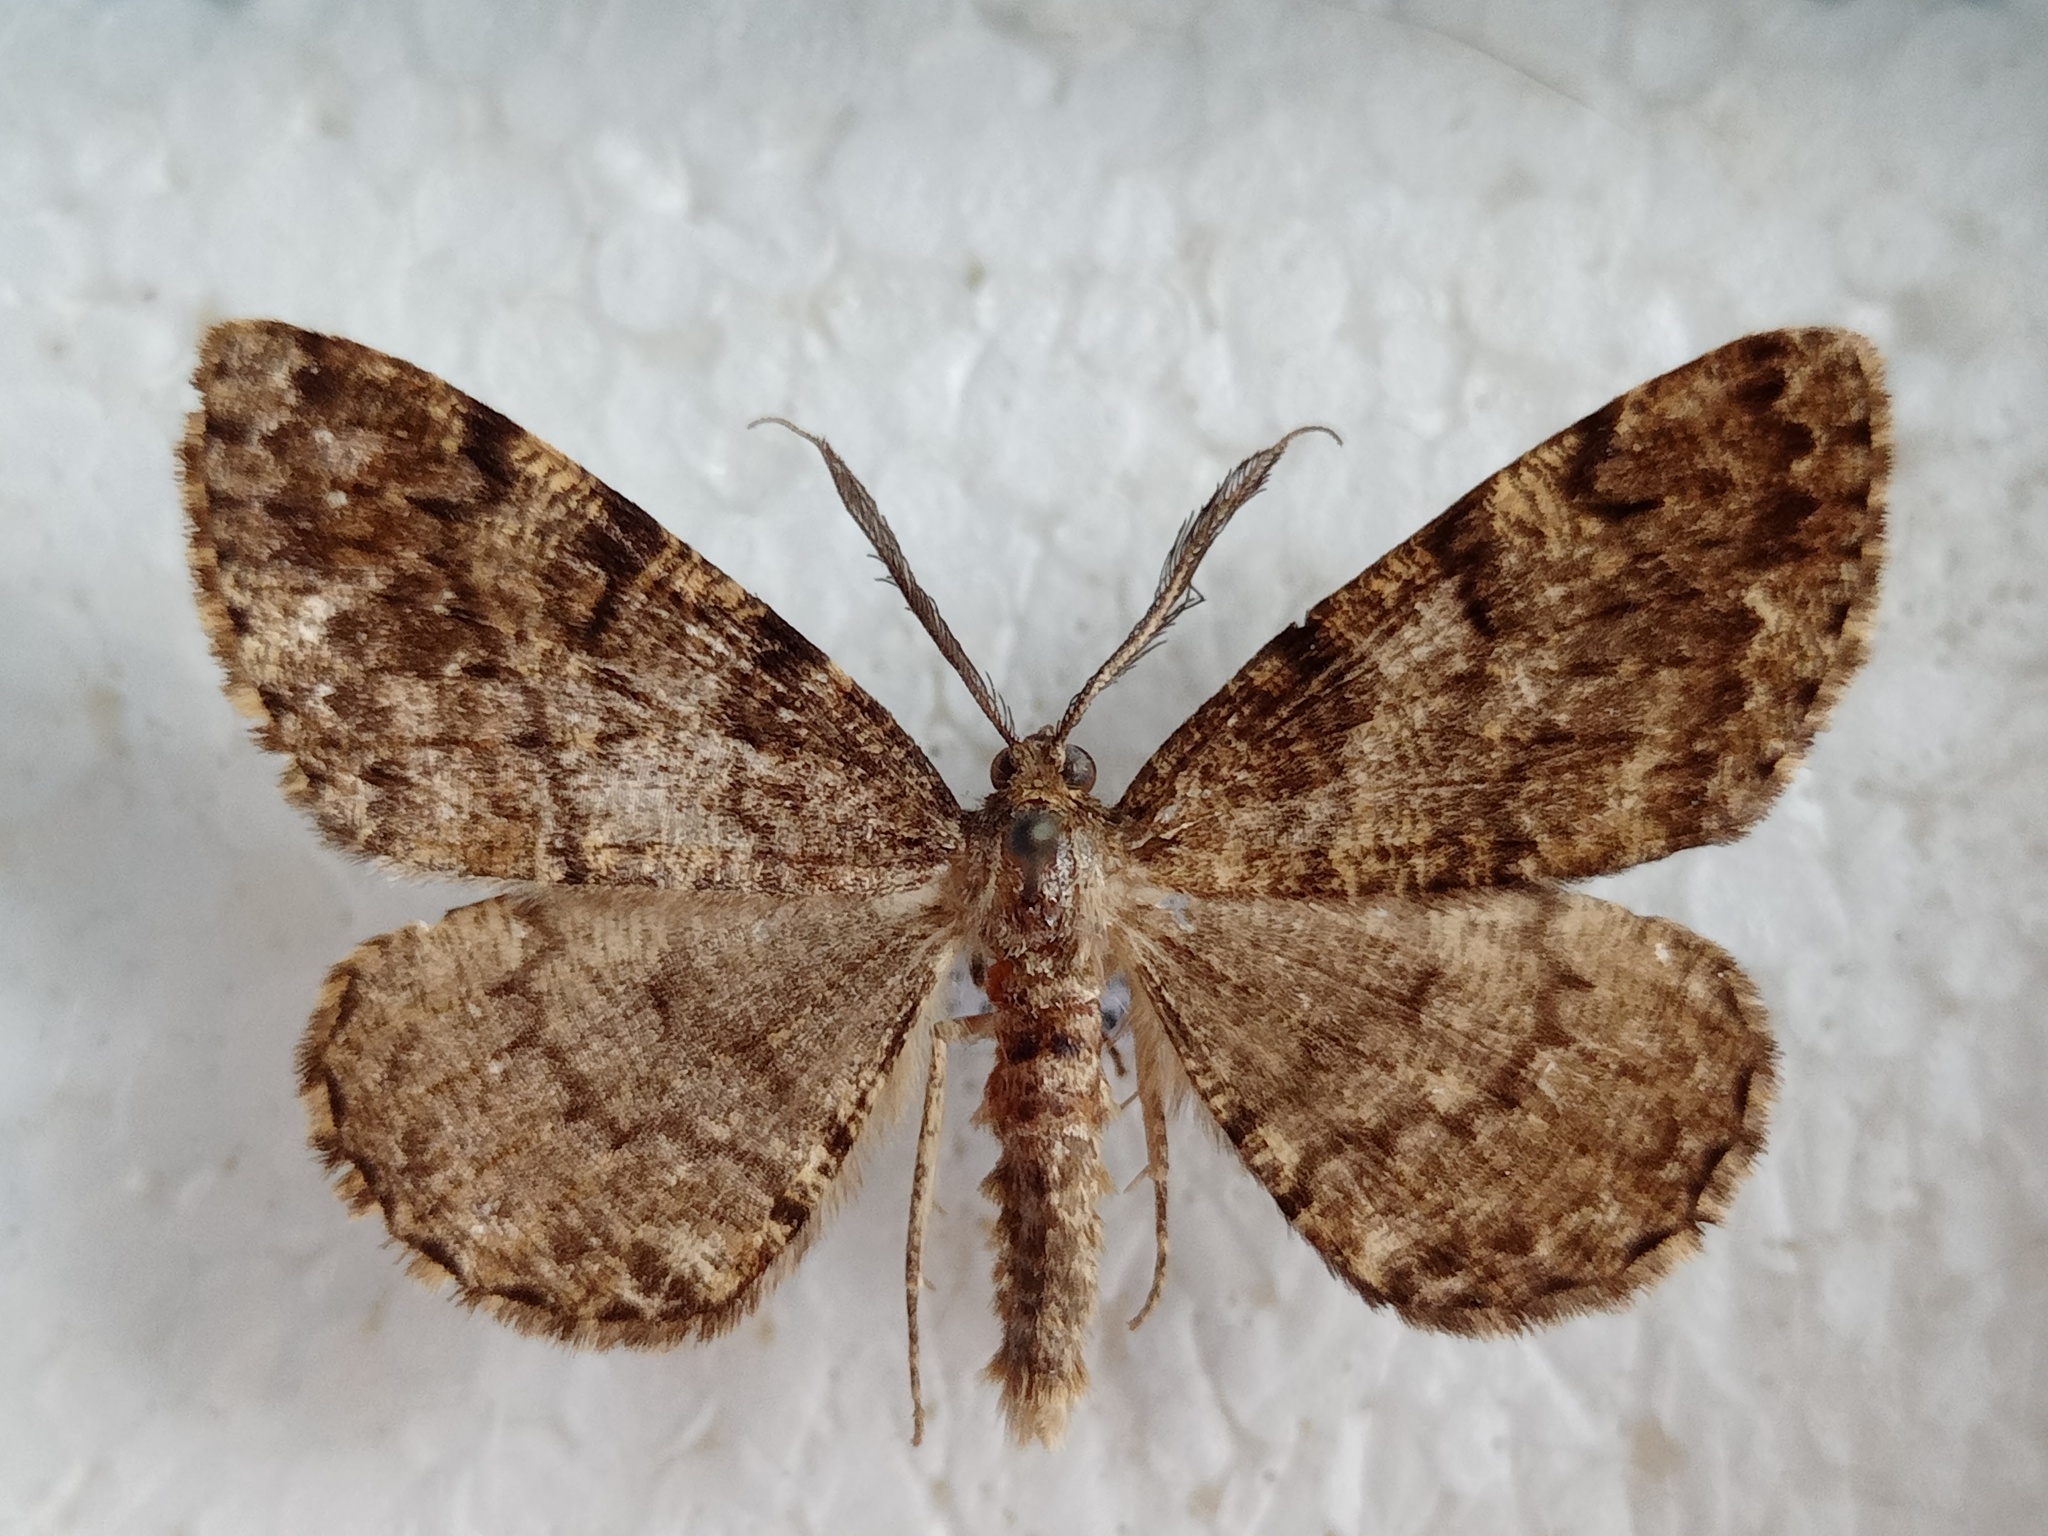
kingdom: Animalia
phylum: Arthropoda
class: Insecta
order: Lepidoptera
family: Geometridae
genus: Deileptenia
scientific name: Deileptenia ribeata
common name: Satin beauty
